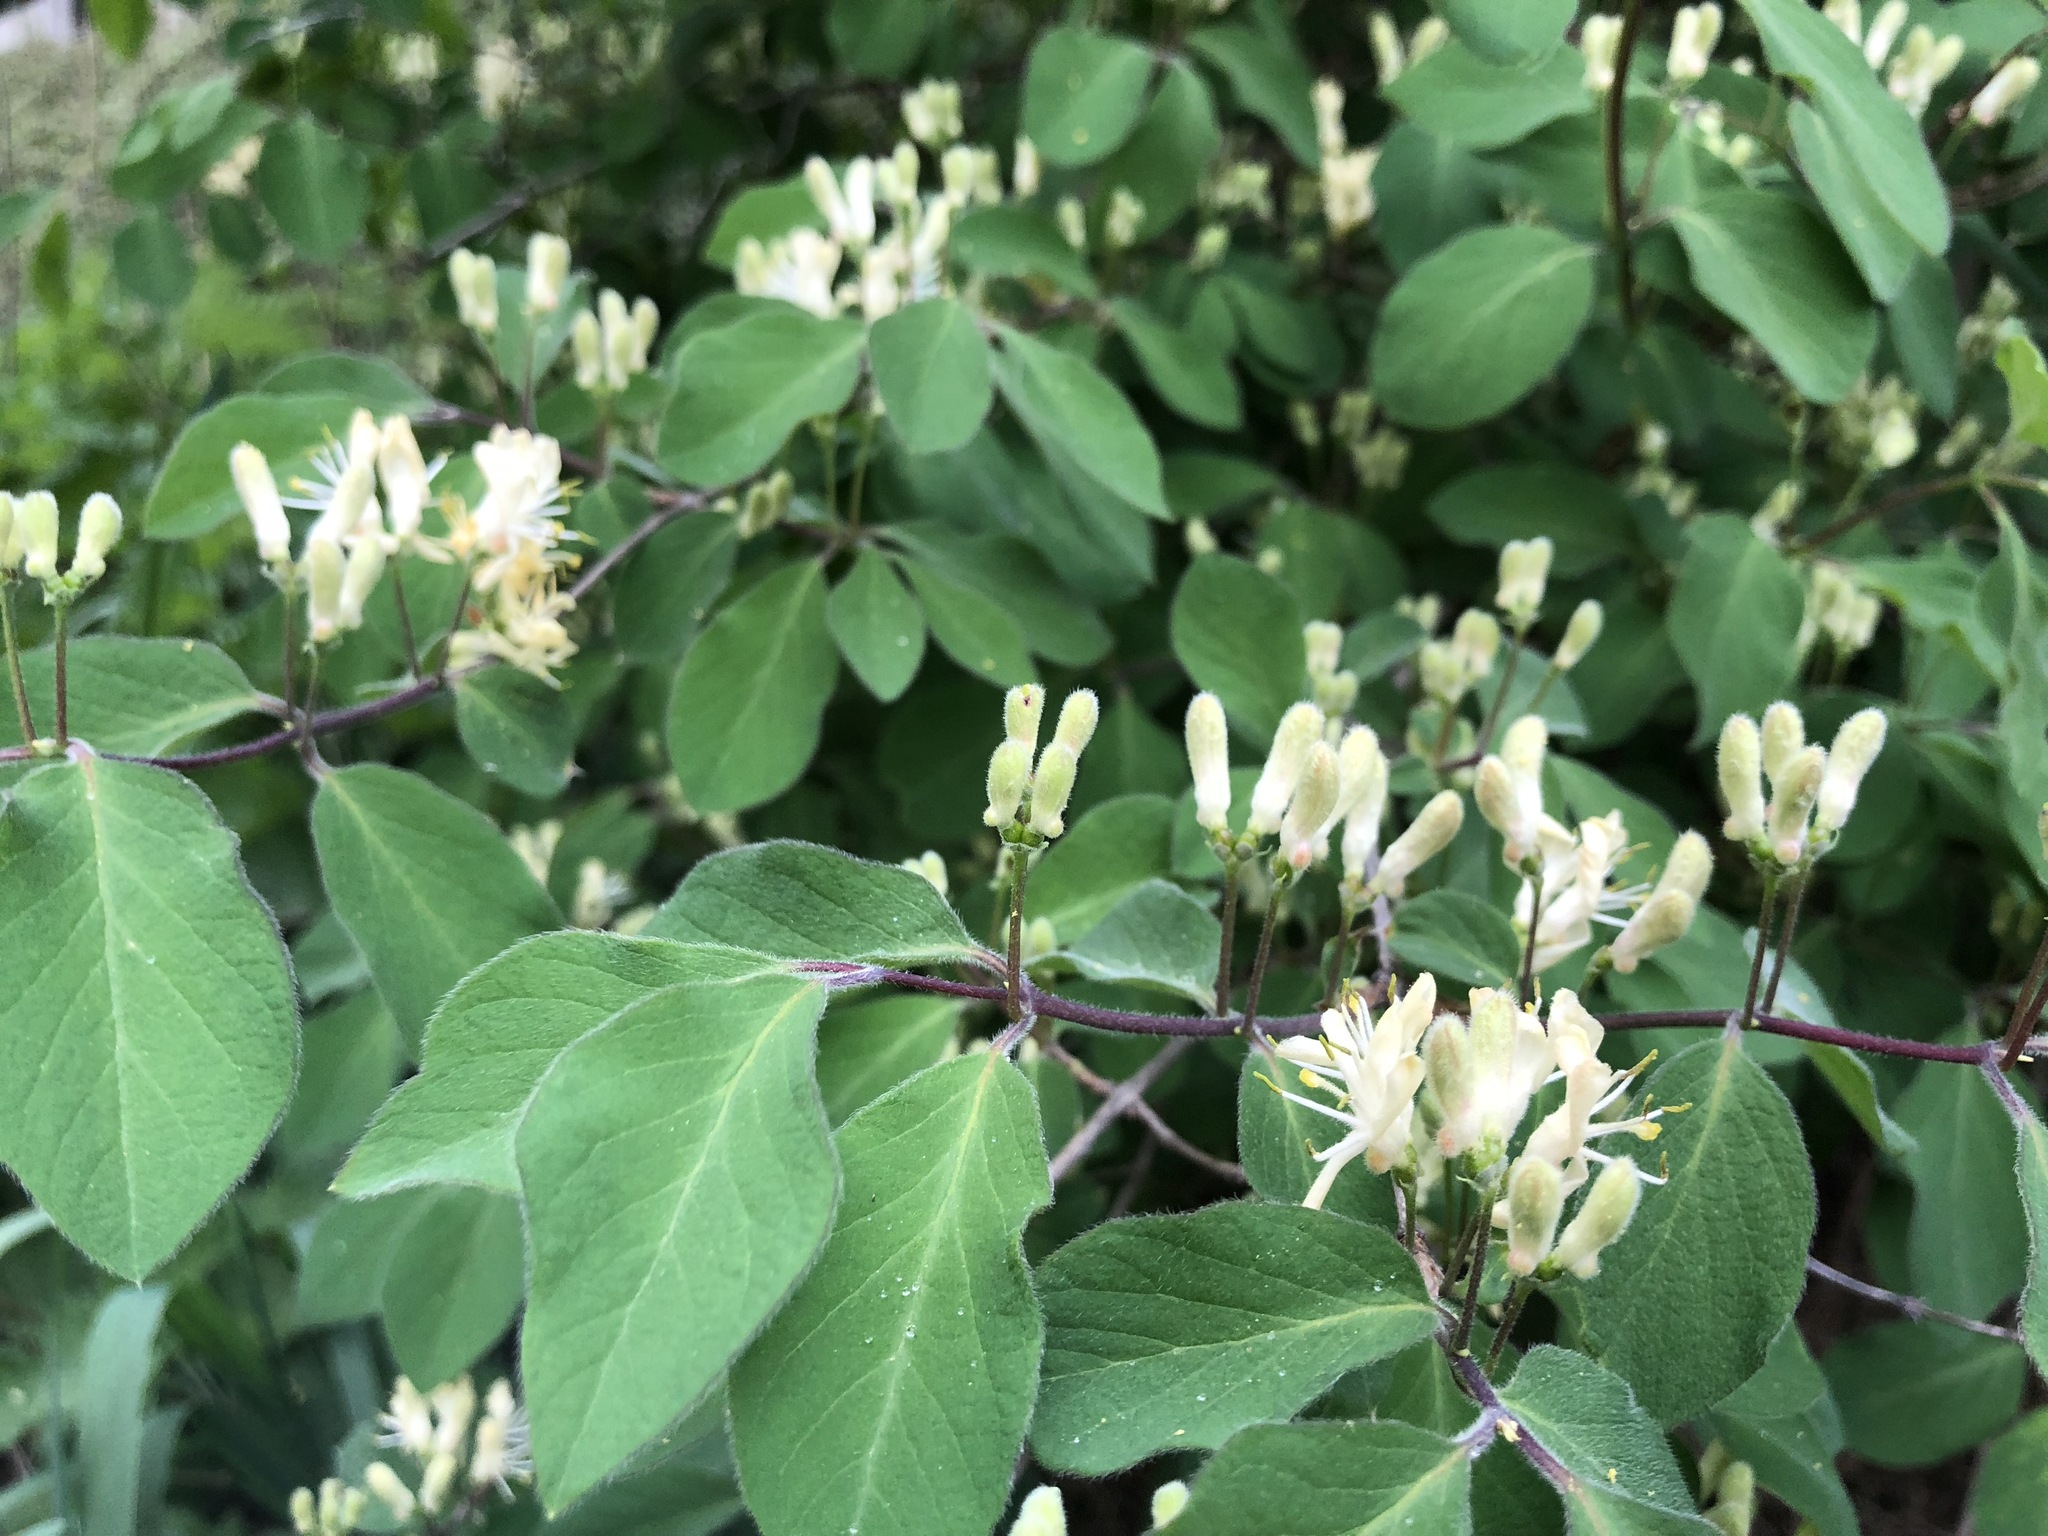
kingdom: Plantae
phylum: Tracheophyta
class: Magnoliopsida
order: Dipsacales
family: Caprifoliaceae
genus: Lonicera
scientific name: Lonicera xylosteum
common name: Fly honeysuckle
